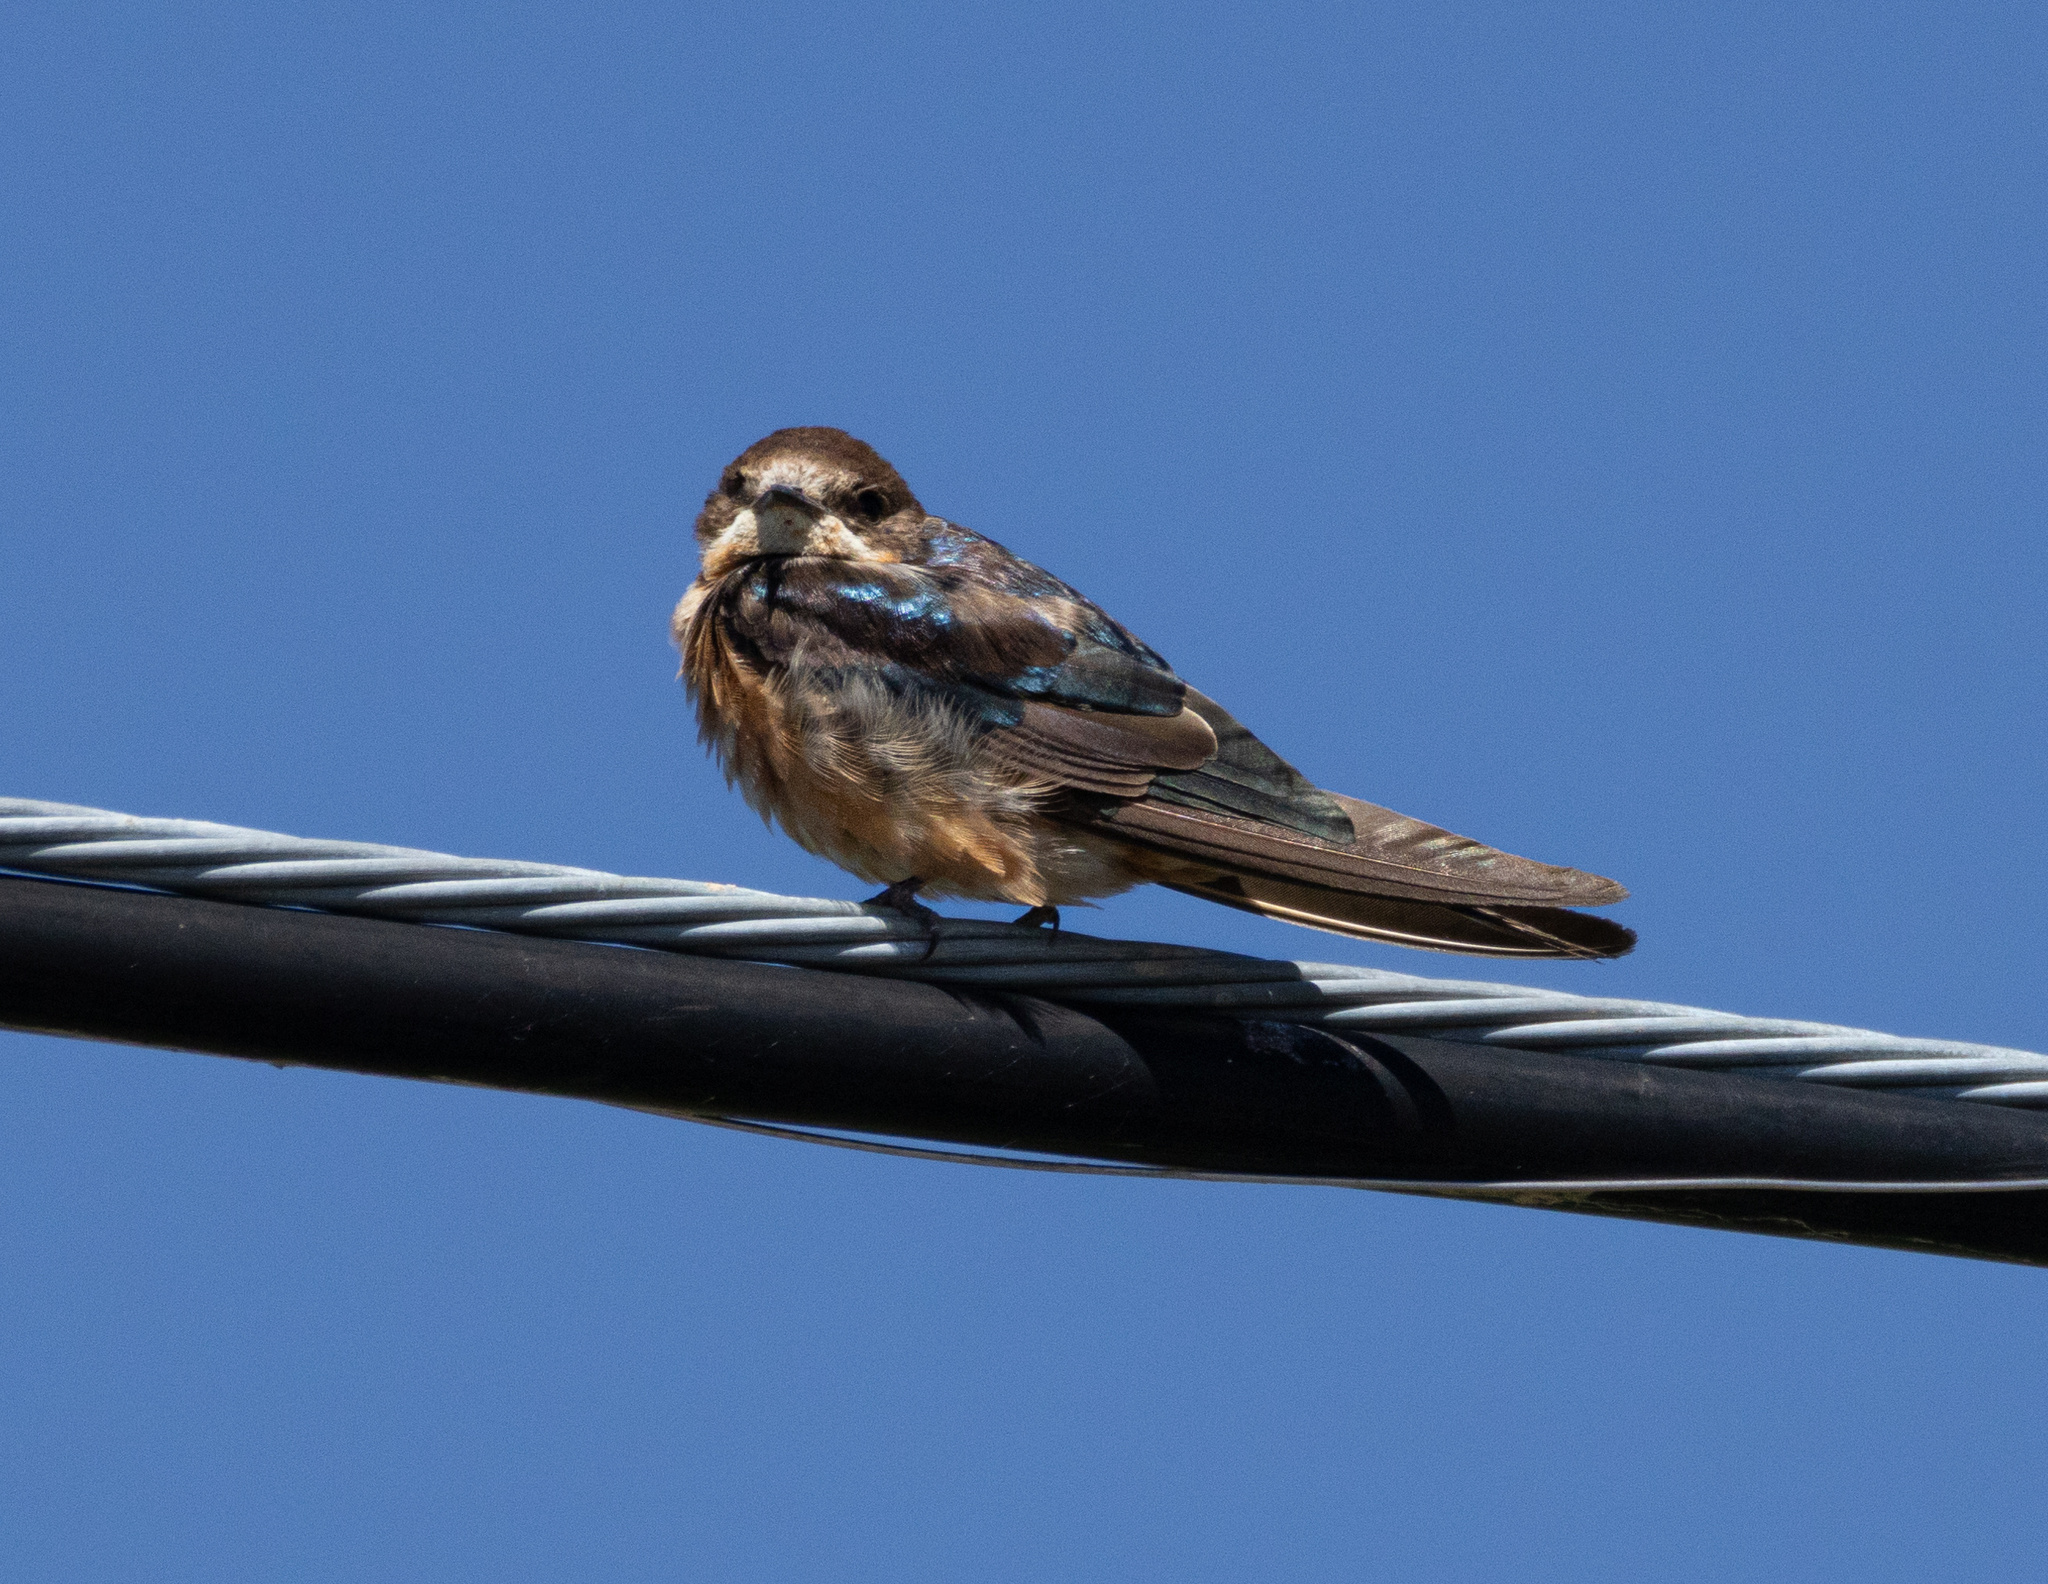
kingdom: Animalia
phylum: Chordata
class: Aves
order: Passeriformes
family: Hirundinidae
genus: Hirundo
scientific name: Hirundo rustica
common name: Barn swallow
